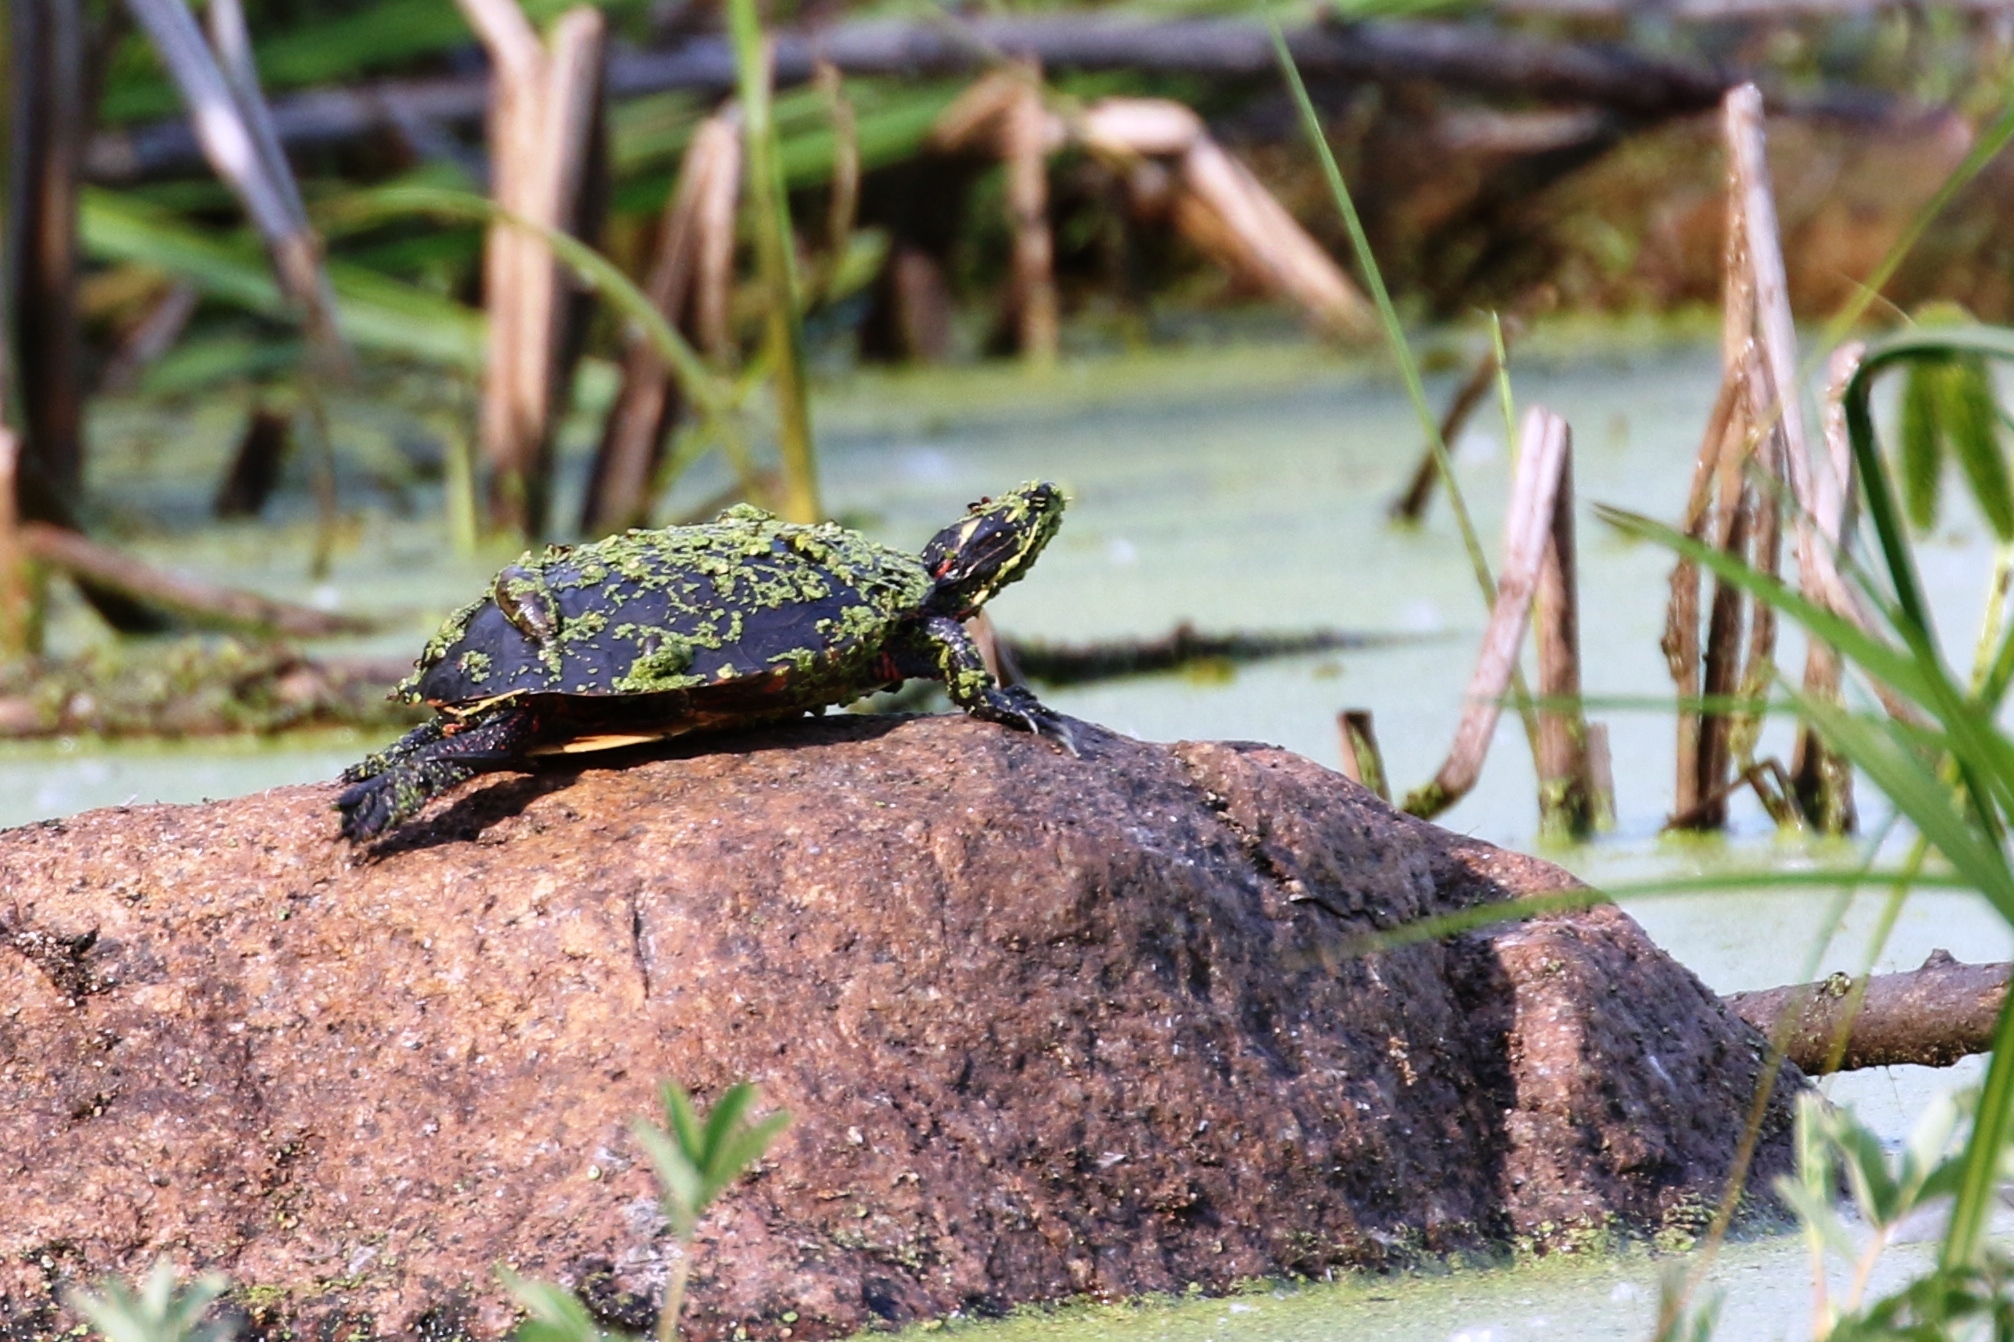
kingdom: Animalia
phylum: Chordata
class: Testudines
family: Emydidae
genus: Chrysemys
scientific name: Chrysemys picta
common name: Painted turtle
